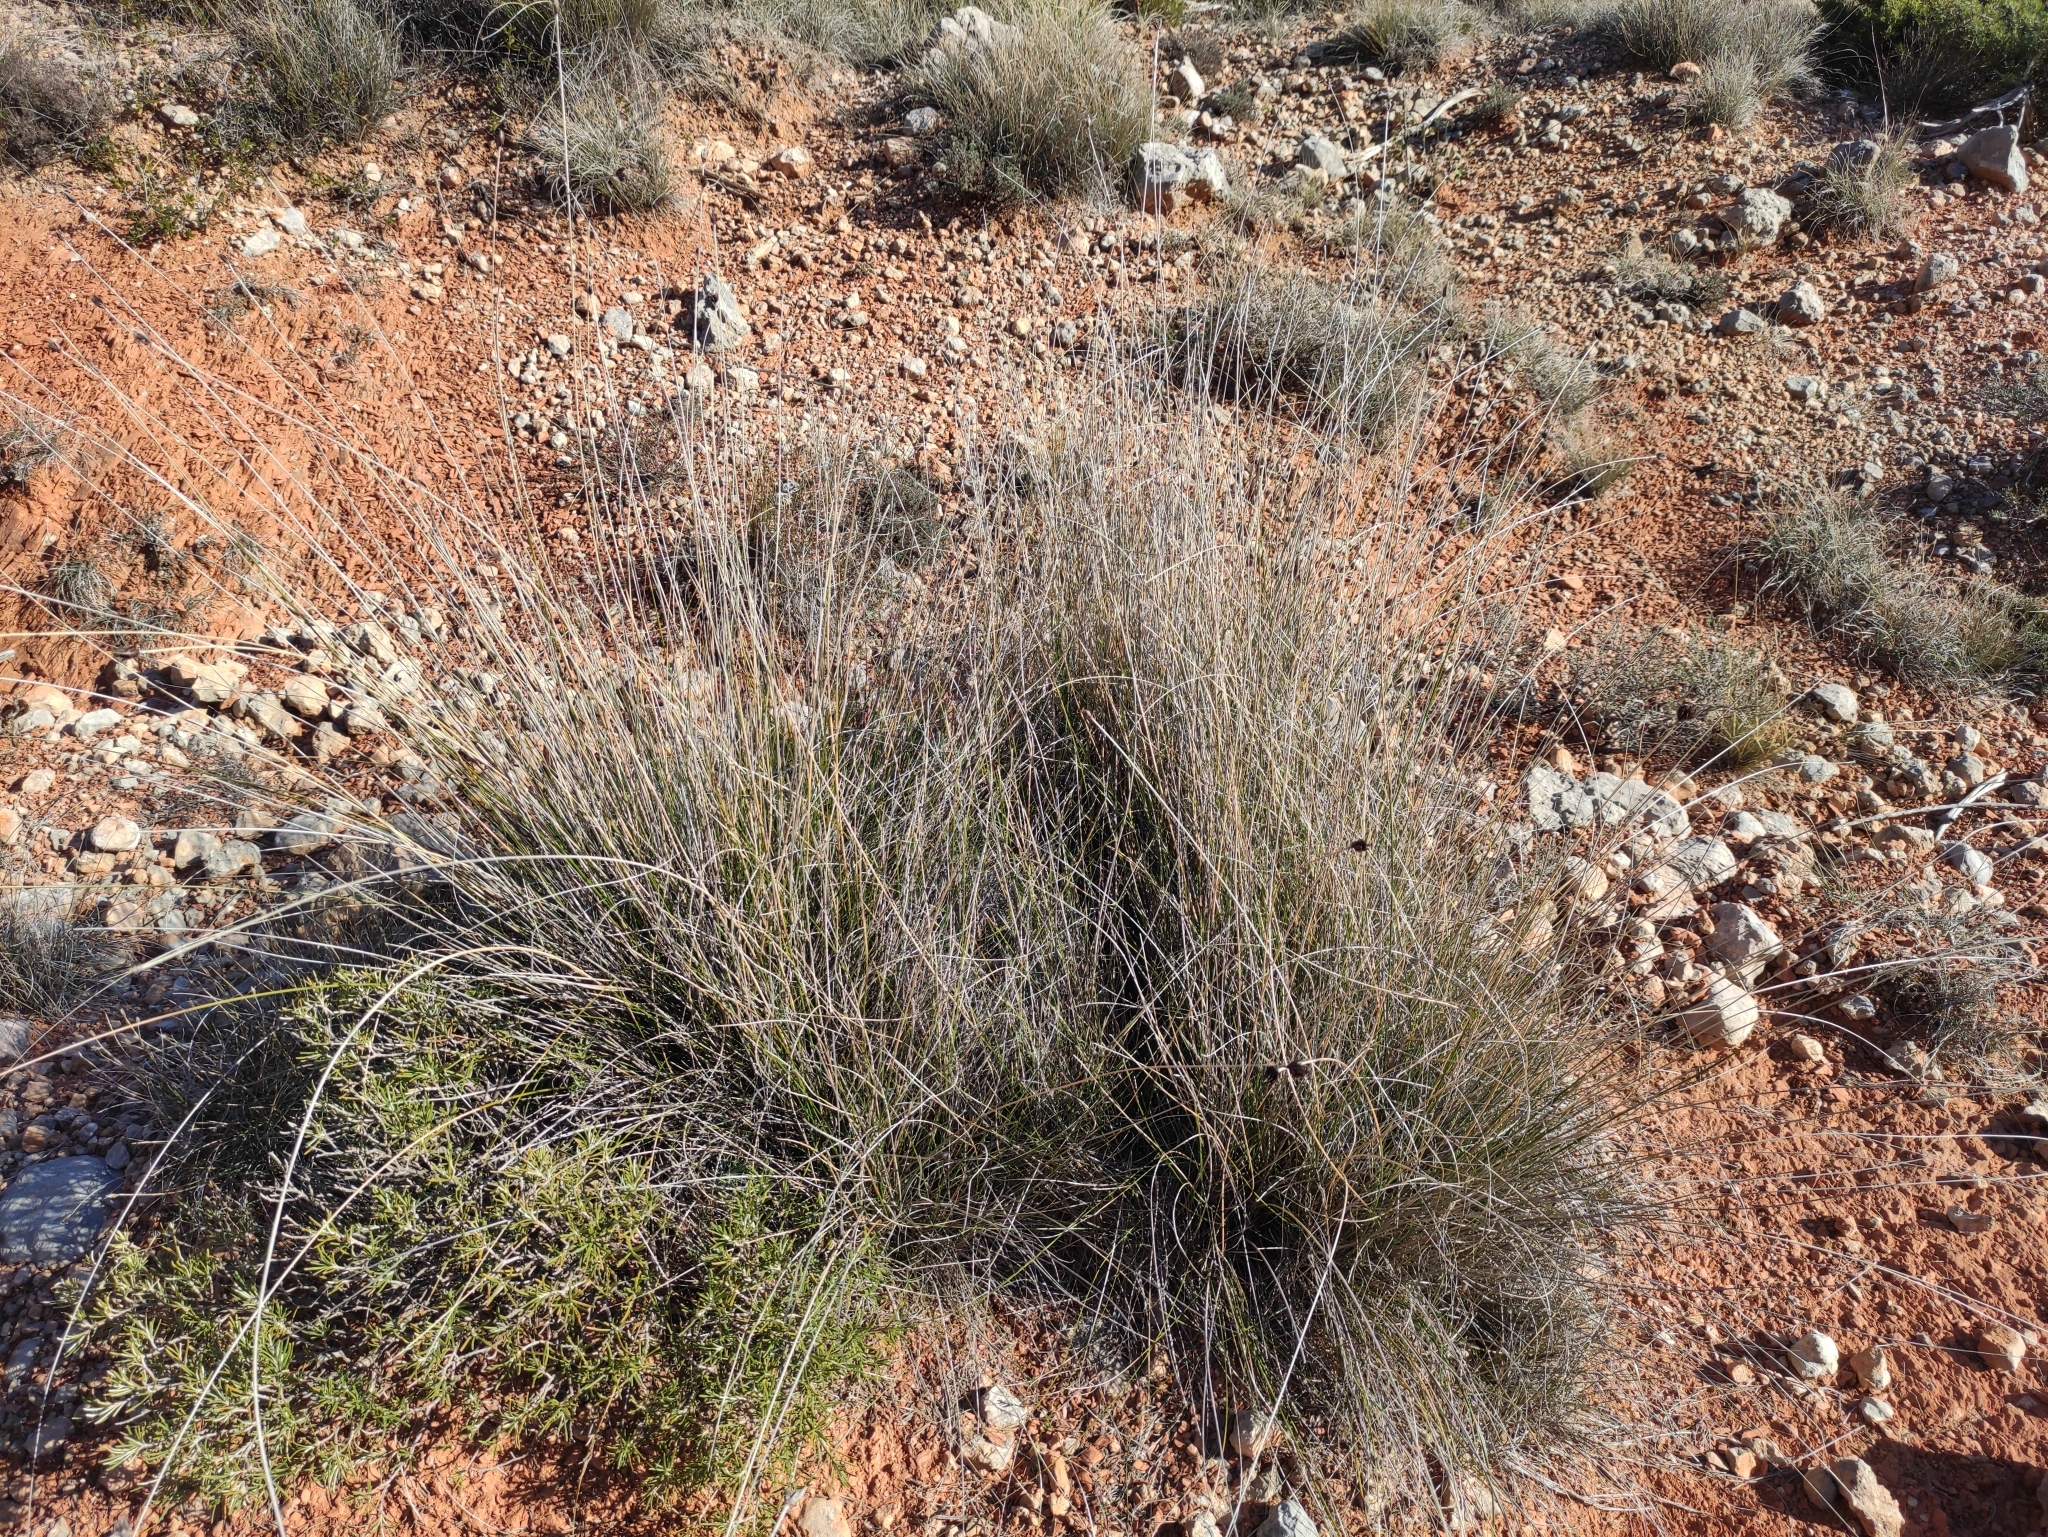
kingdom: Plantae
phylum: Tracheophyta
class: Liliopsida
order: Poales
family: Cyperaceae
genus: Schoenus
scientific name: Schoenus nigricans
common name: Black bog-rush
